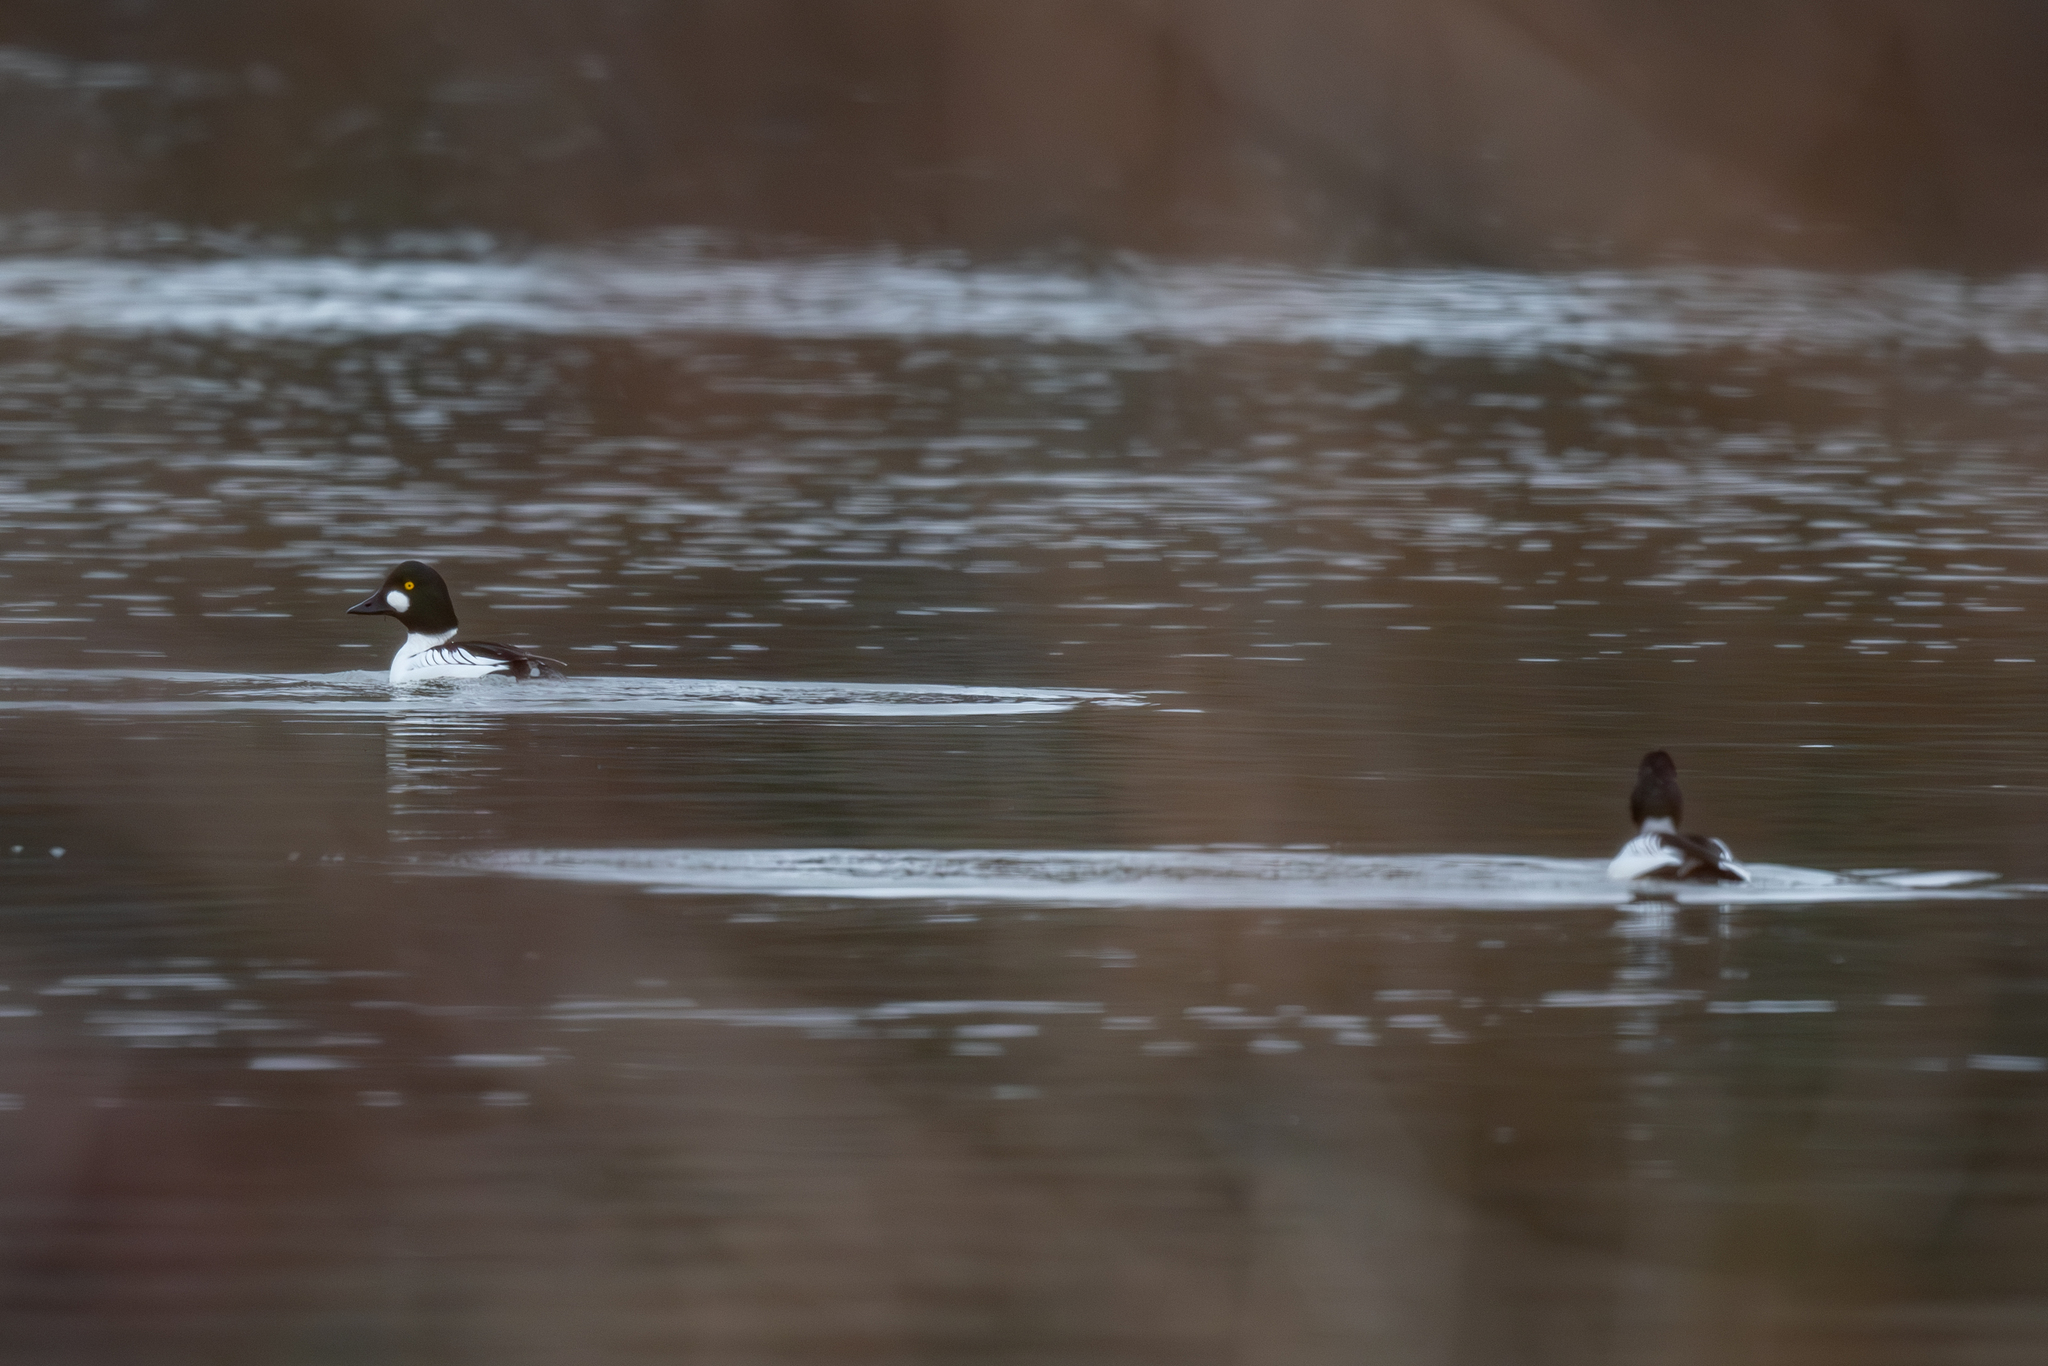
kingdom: Animalia
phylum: Chordata
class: Aves
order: Anseriformes
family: Anatidae
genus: Bucephala
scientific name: Bucephala clangula
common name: Common goldeneye
